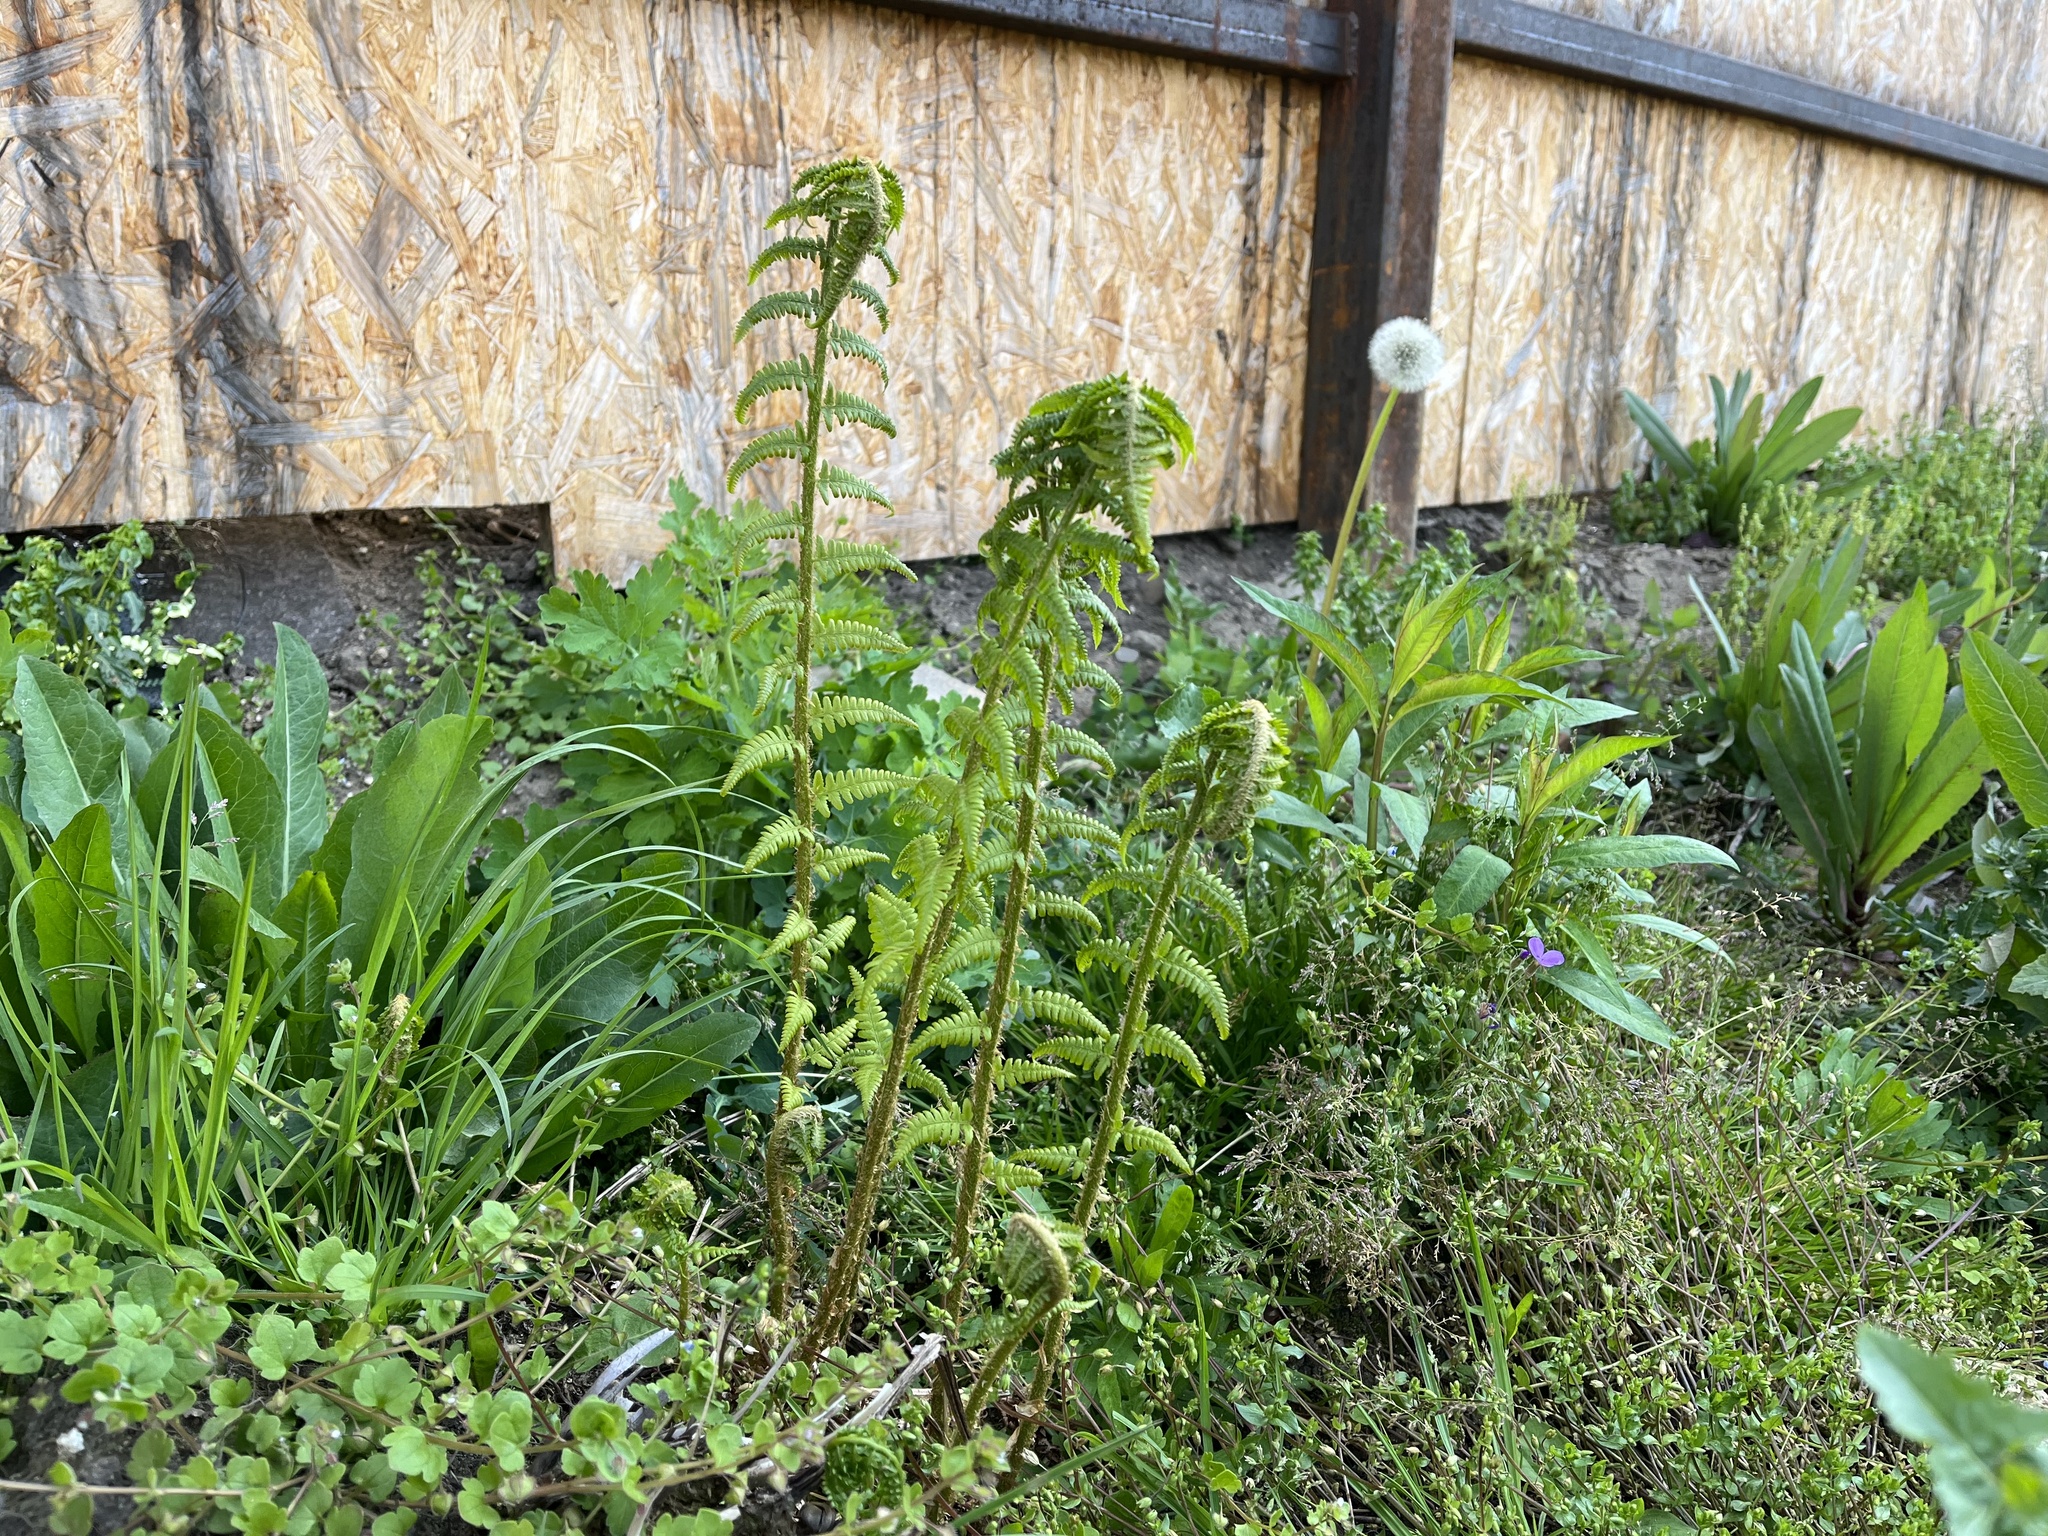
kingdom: Plantae
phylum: Tracheophyta
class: Polypodiopsida
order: Polypodiales
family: Dryopteridaceae
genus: Dryopteris
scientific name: Dryopteris filix-mas
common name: Male fern
